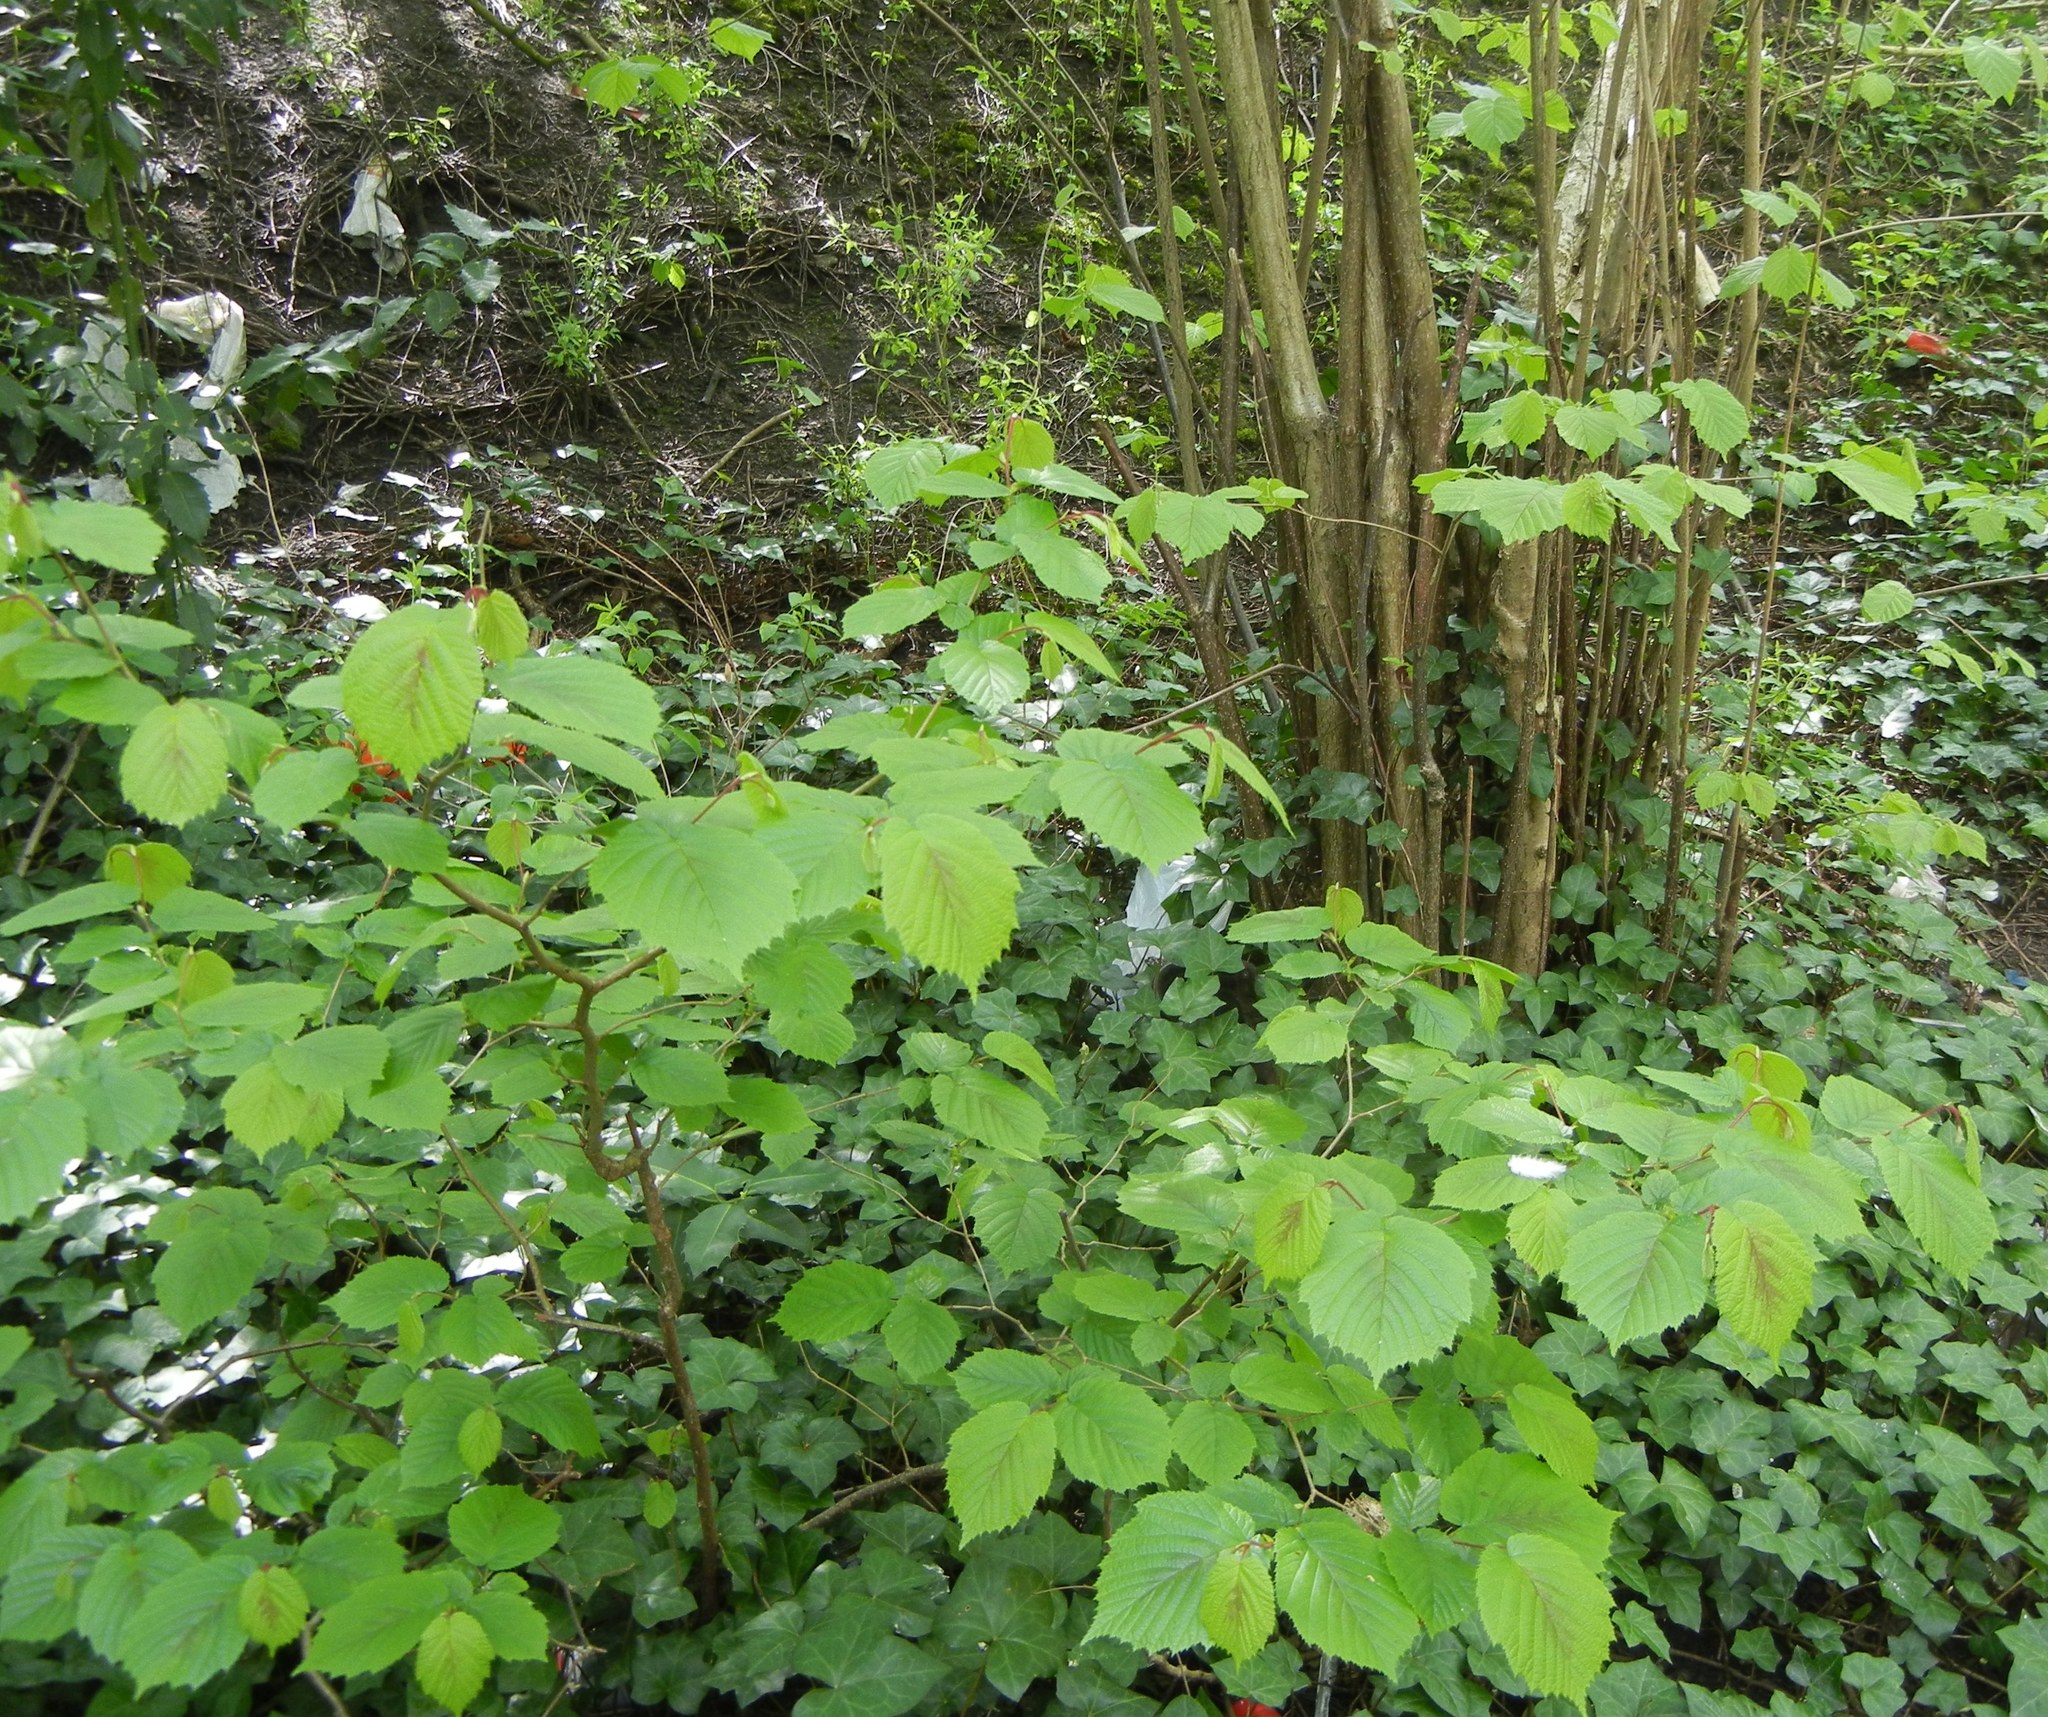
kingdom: Plantae
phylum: Tracheophyta
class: Magnoliopsida
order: Fagales
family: Betulaceae
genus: Corylus
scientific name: Corylus avellana
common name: European hazel
